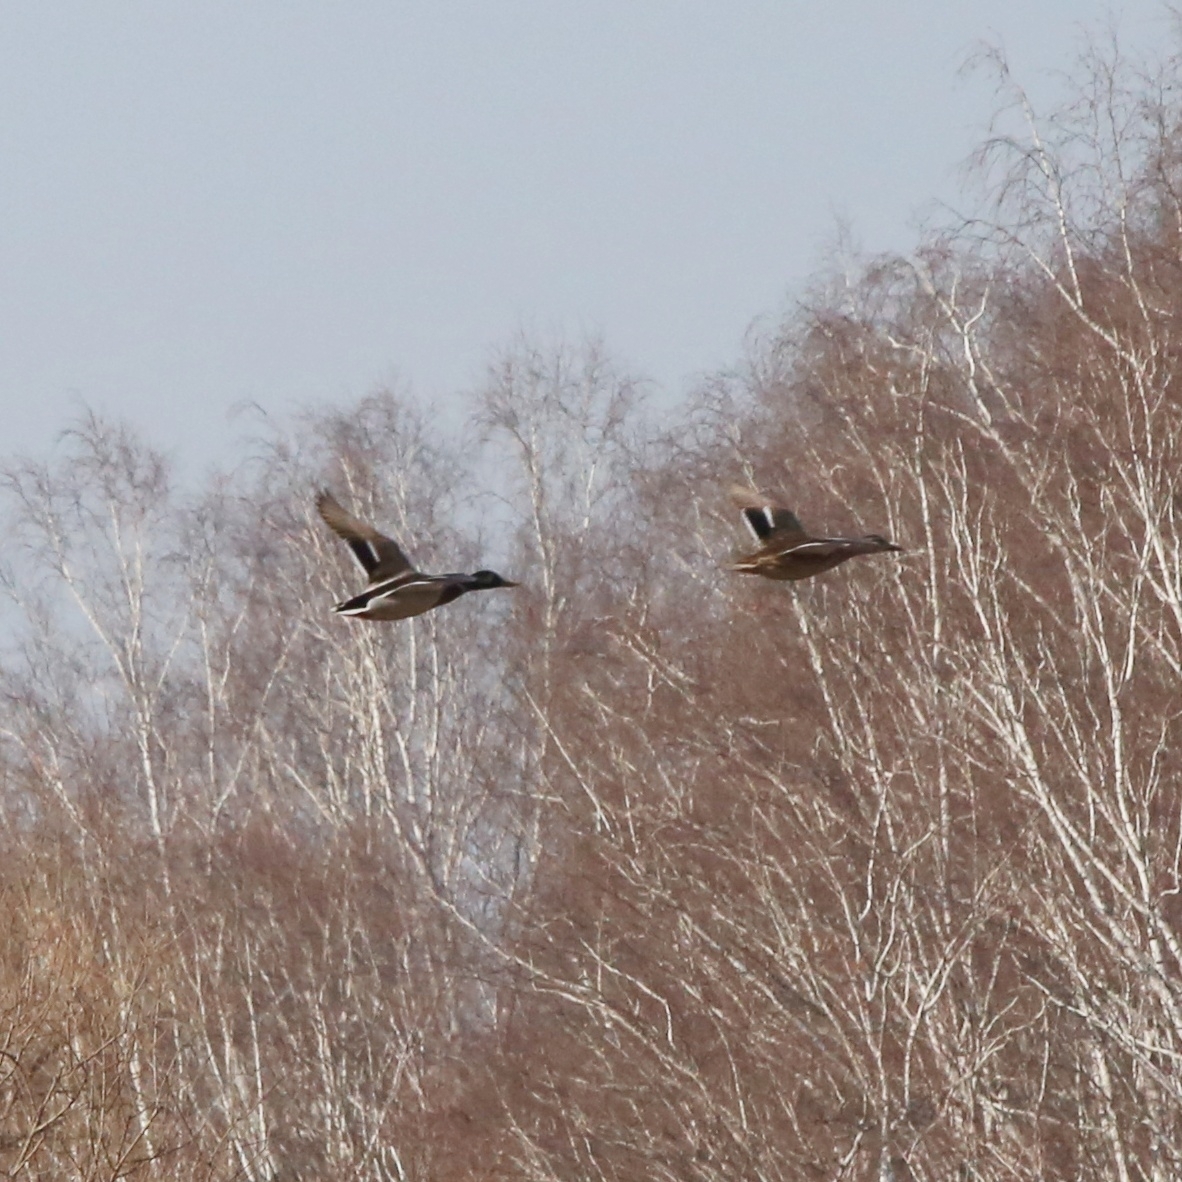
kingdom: Animalia
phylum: Chordata
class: Aves
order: Anseriformes
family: Anatidae
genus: Anas
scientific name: Anas platyrhynchos
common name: Mallard
